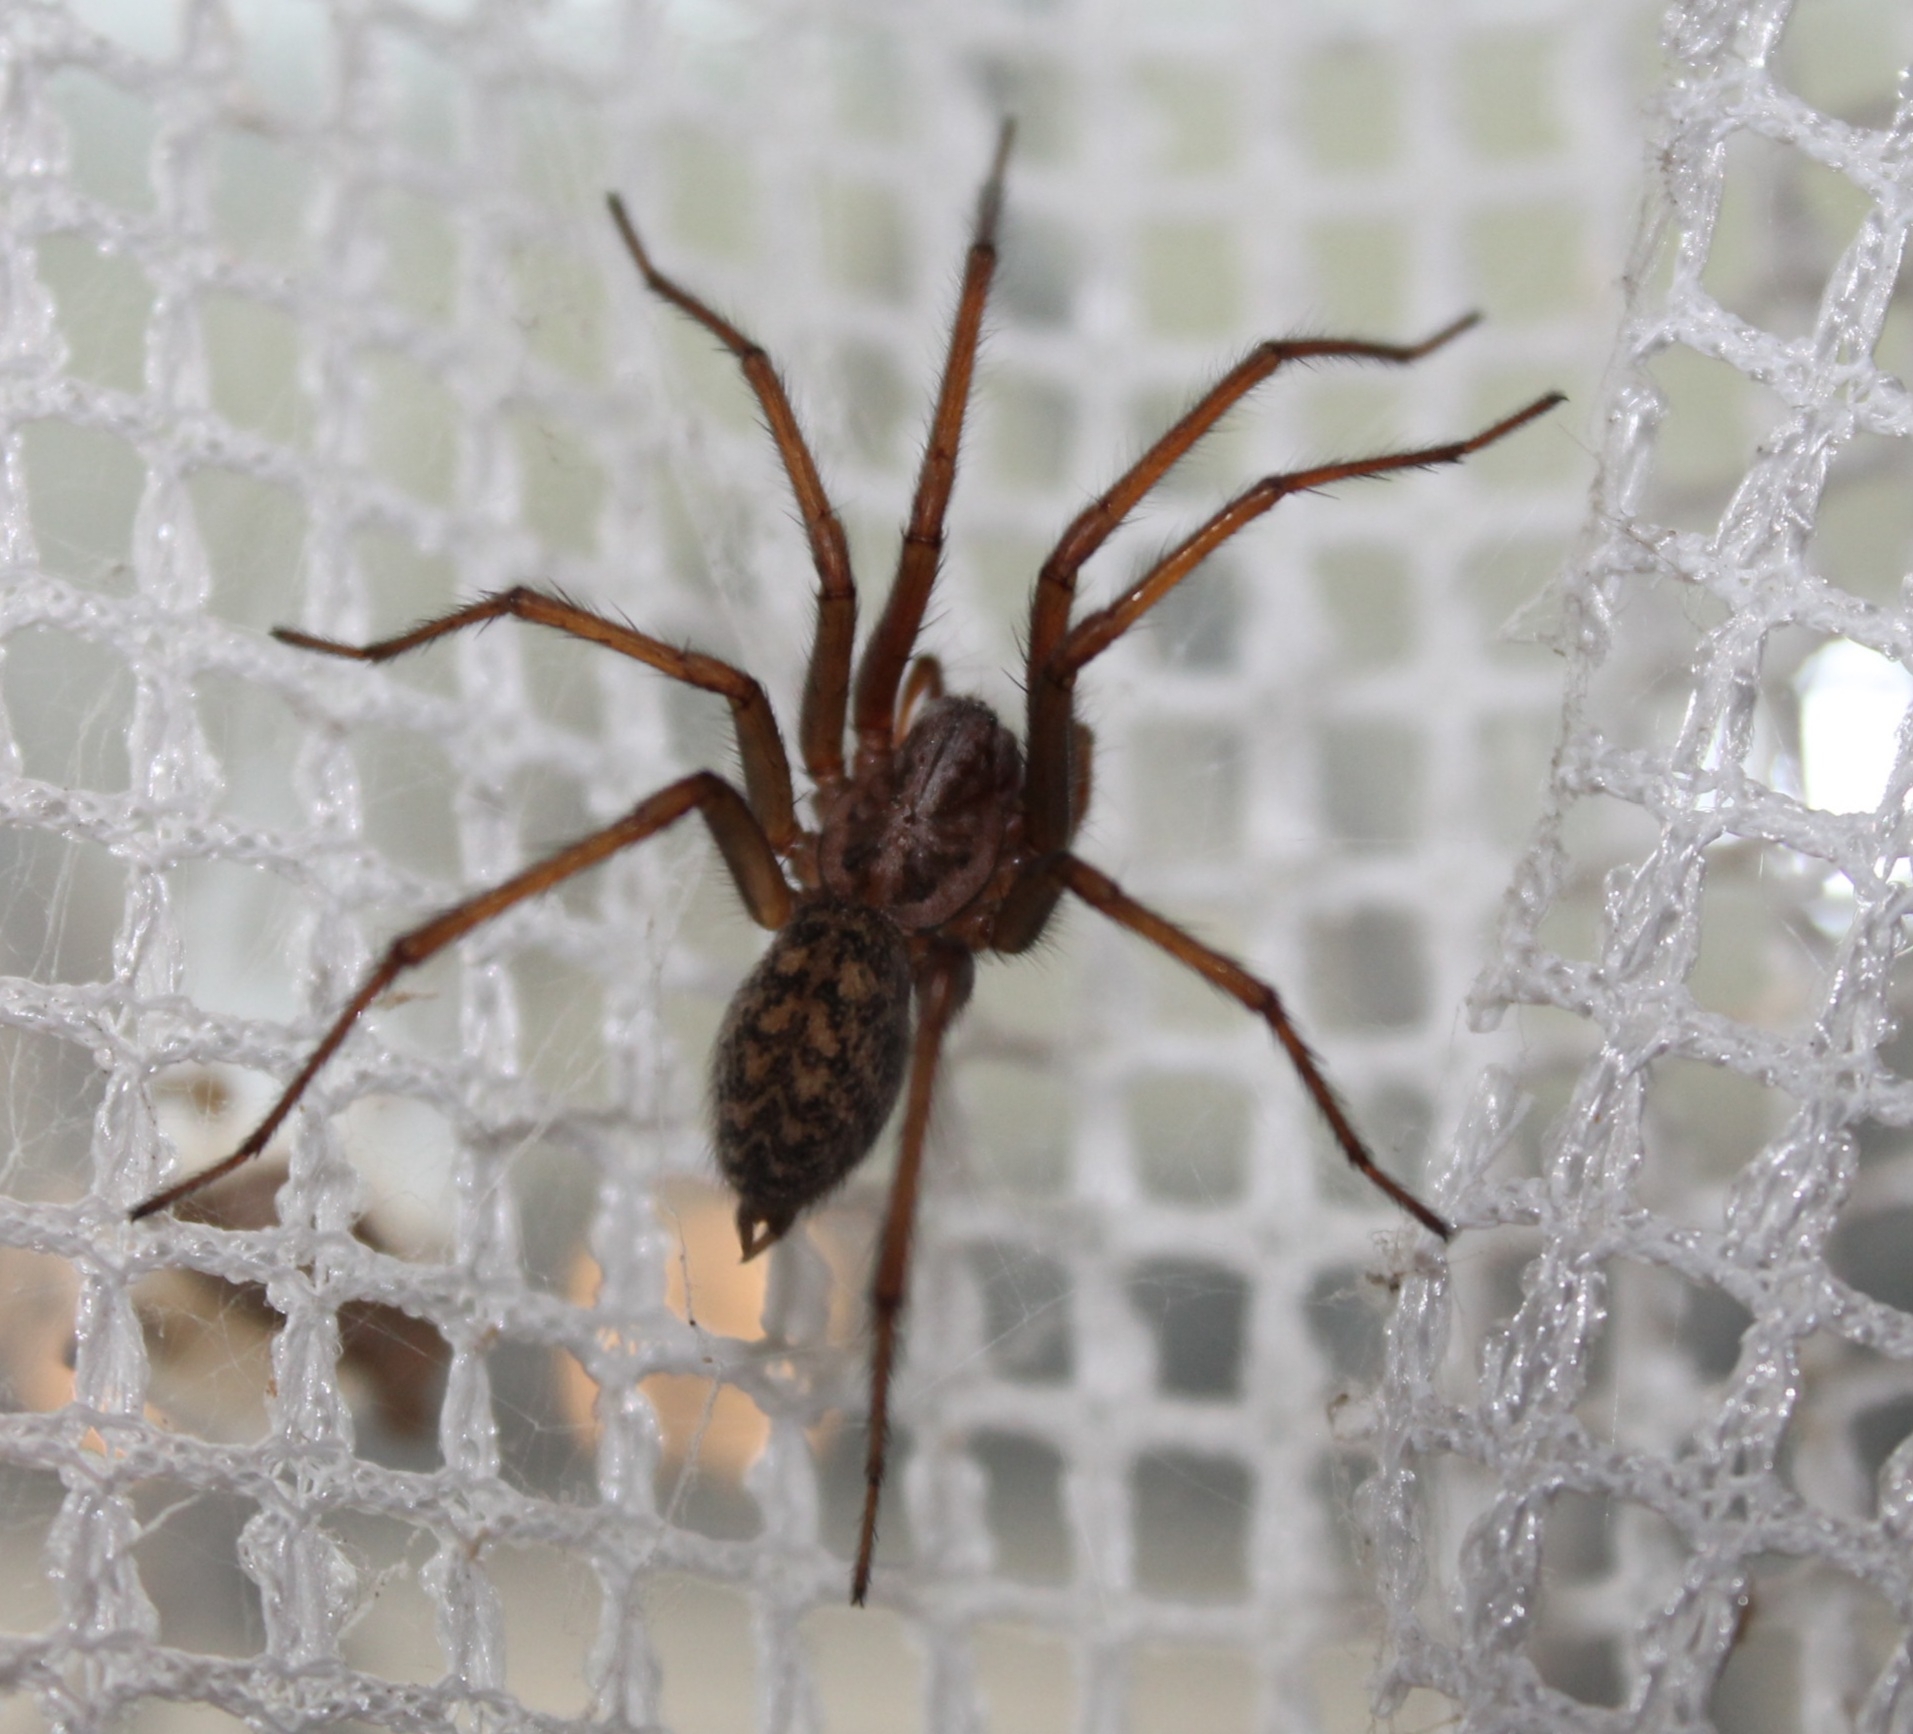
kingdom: Animalia
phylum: Arthropoda
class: Arachnida
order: Araneae
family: Agelenidae
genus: Eratigena
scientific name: Eratigena atrica
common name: Giant house spider
